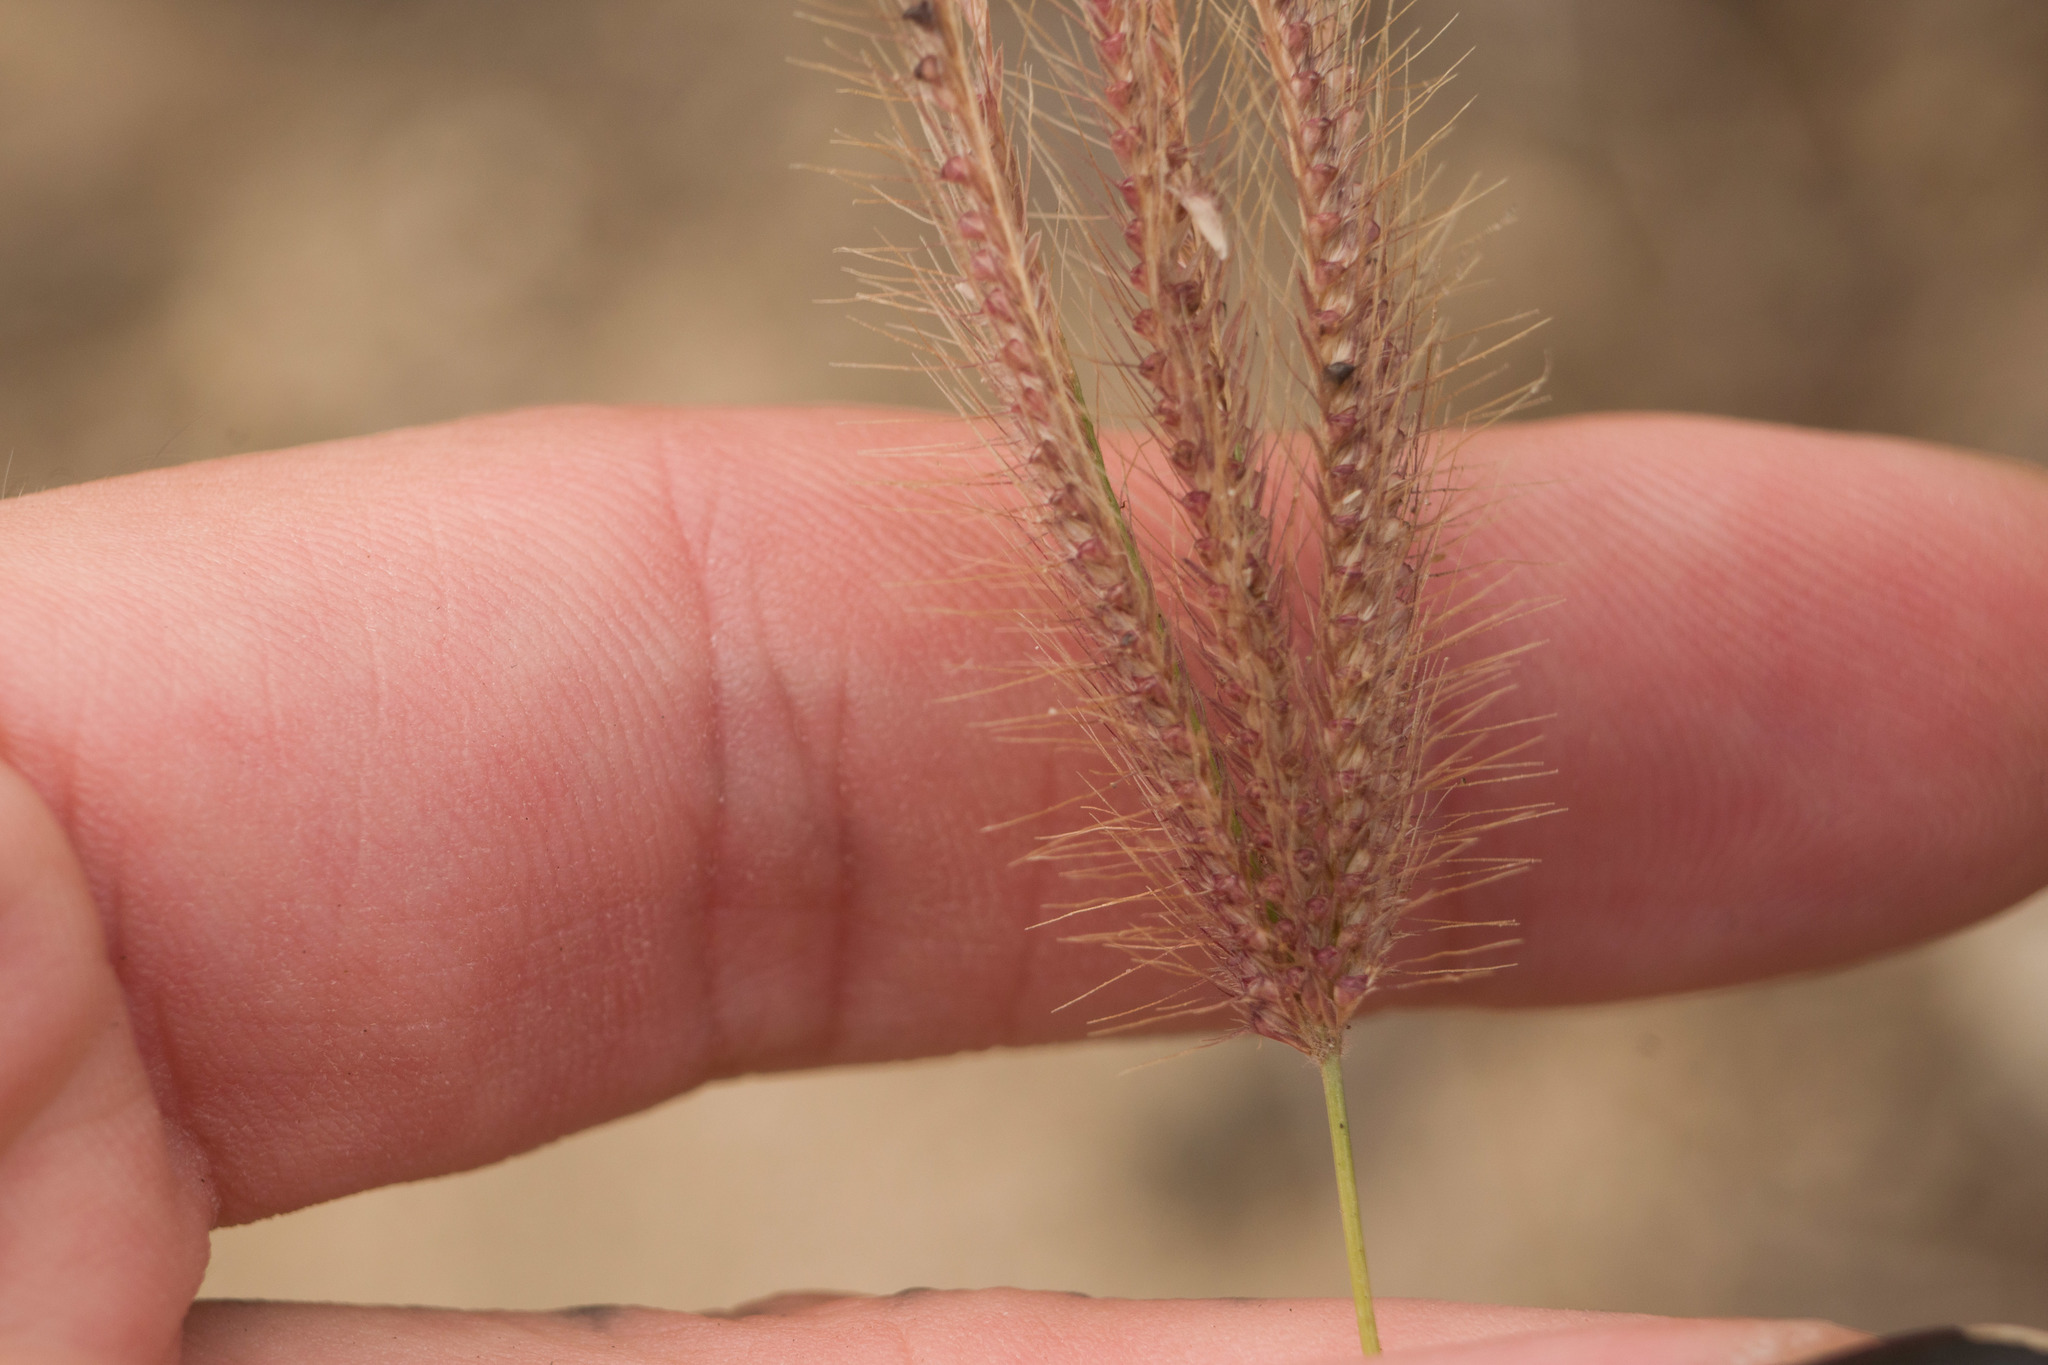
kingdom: Plantae
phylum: Tracheophyta
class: Liliopsida
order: Poales
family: Poaceae
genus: Chloris
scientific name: Chloris barbata
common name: Swollen fingergrass
